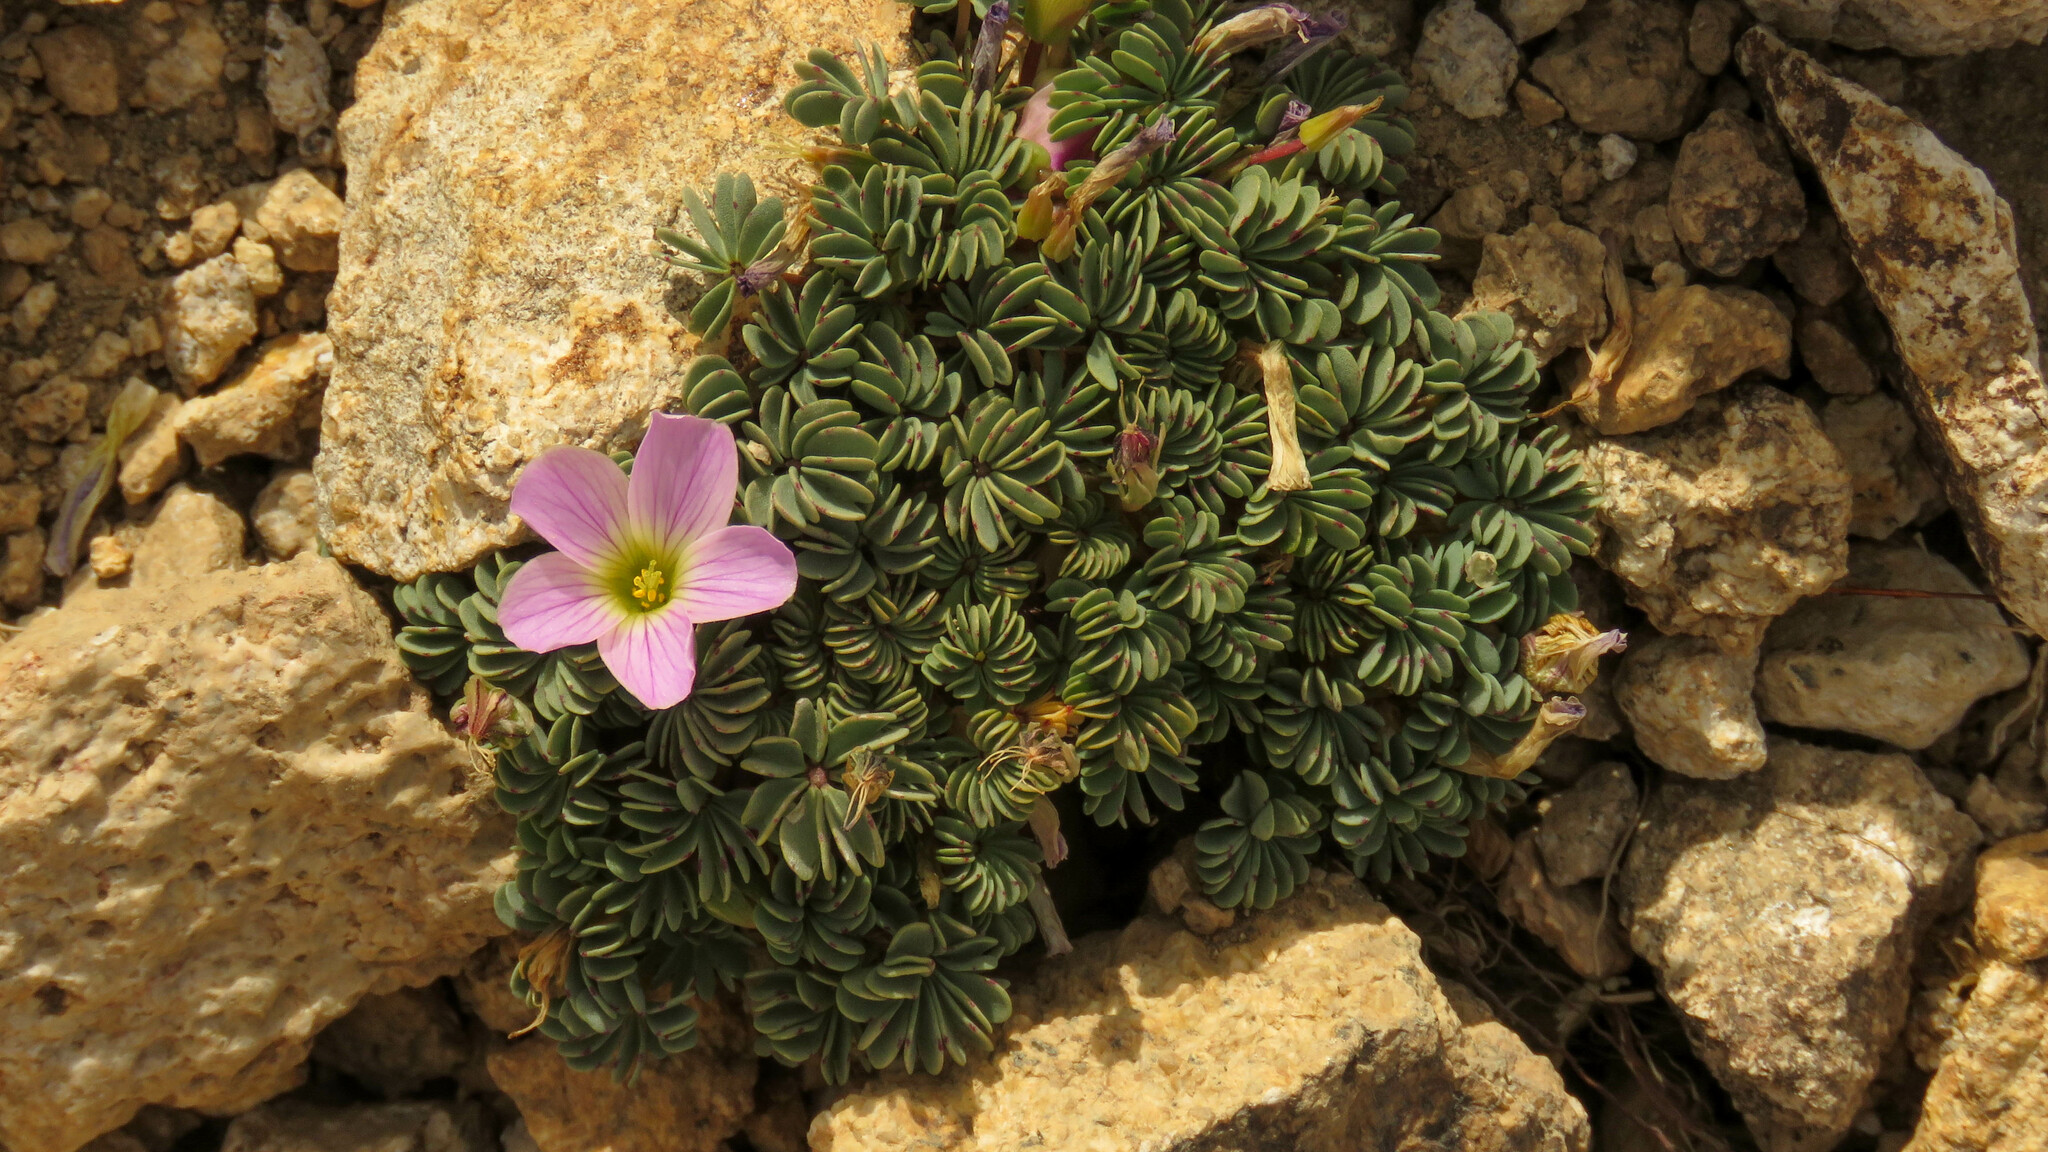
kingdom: Plantae
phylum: Tracheophyta
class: Magnoliopsida
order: Oxalidales
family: Oxalidaceae
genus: Oxalis
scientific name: Oxalis adenophylla
